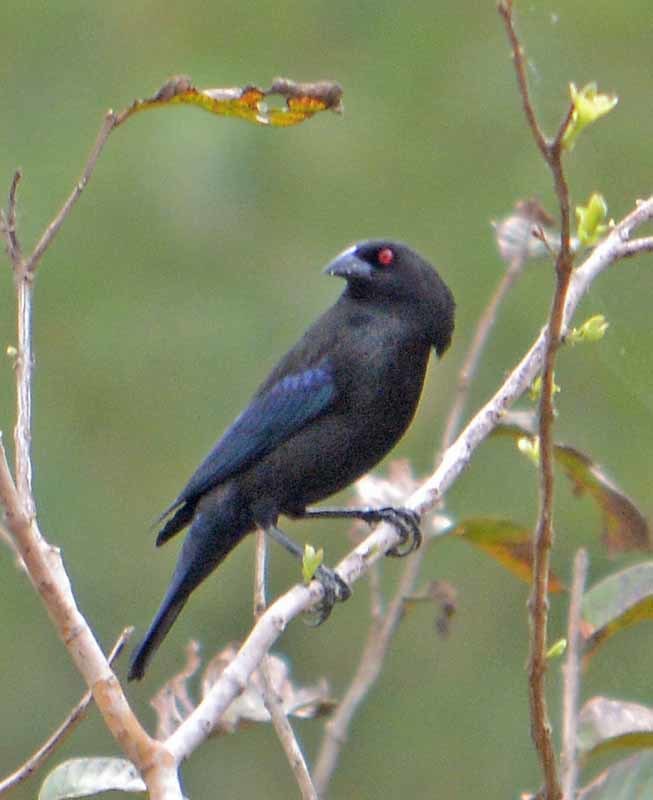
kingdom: Animalia
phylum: Chordata
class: Aves
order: Passeriformes
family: Icteridae
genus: Molothrus
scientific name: Molothrus aeneus
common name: Bronzed cowbird
